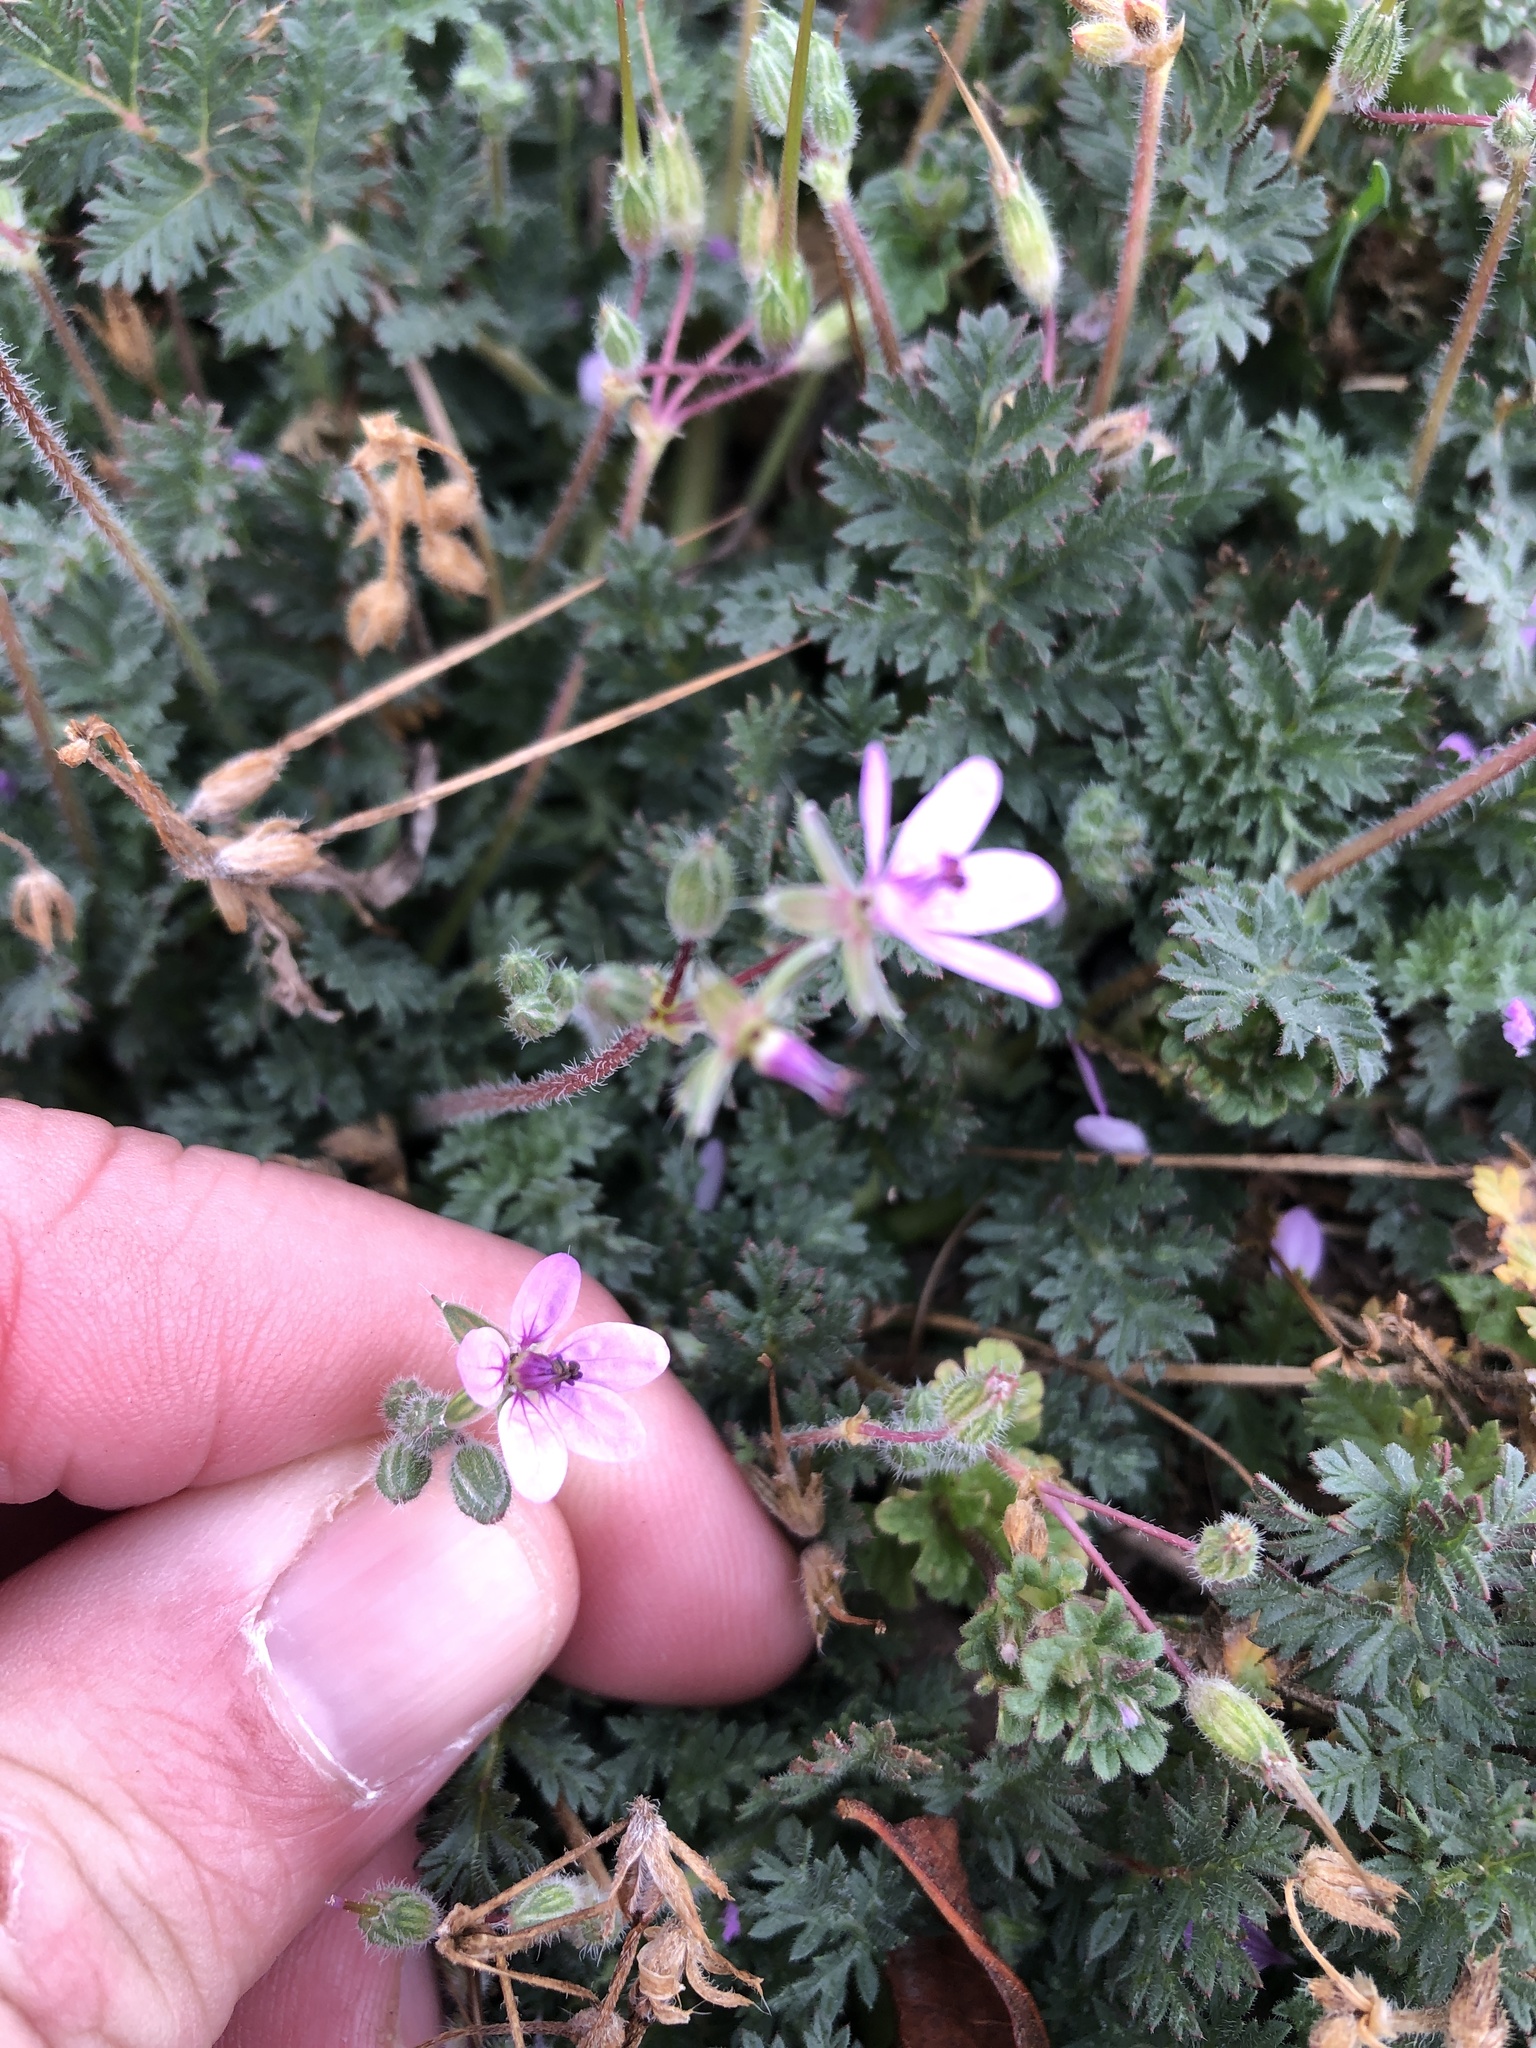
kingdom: Plantae
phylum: Tracheophyta
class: Magnoliopsida
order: Geraniales
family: Geraniaceae
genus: Erodium
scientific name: Erodium cicutarium
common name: Common stork's-bill
